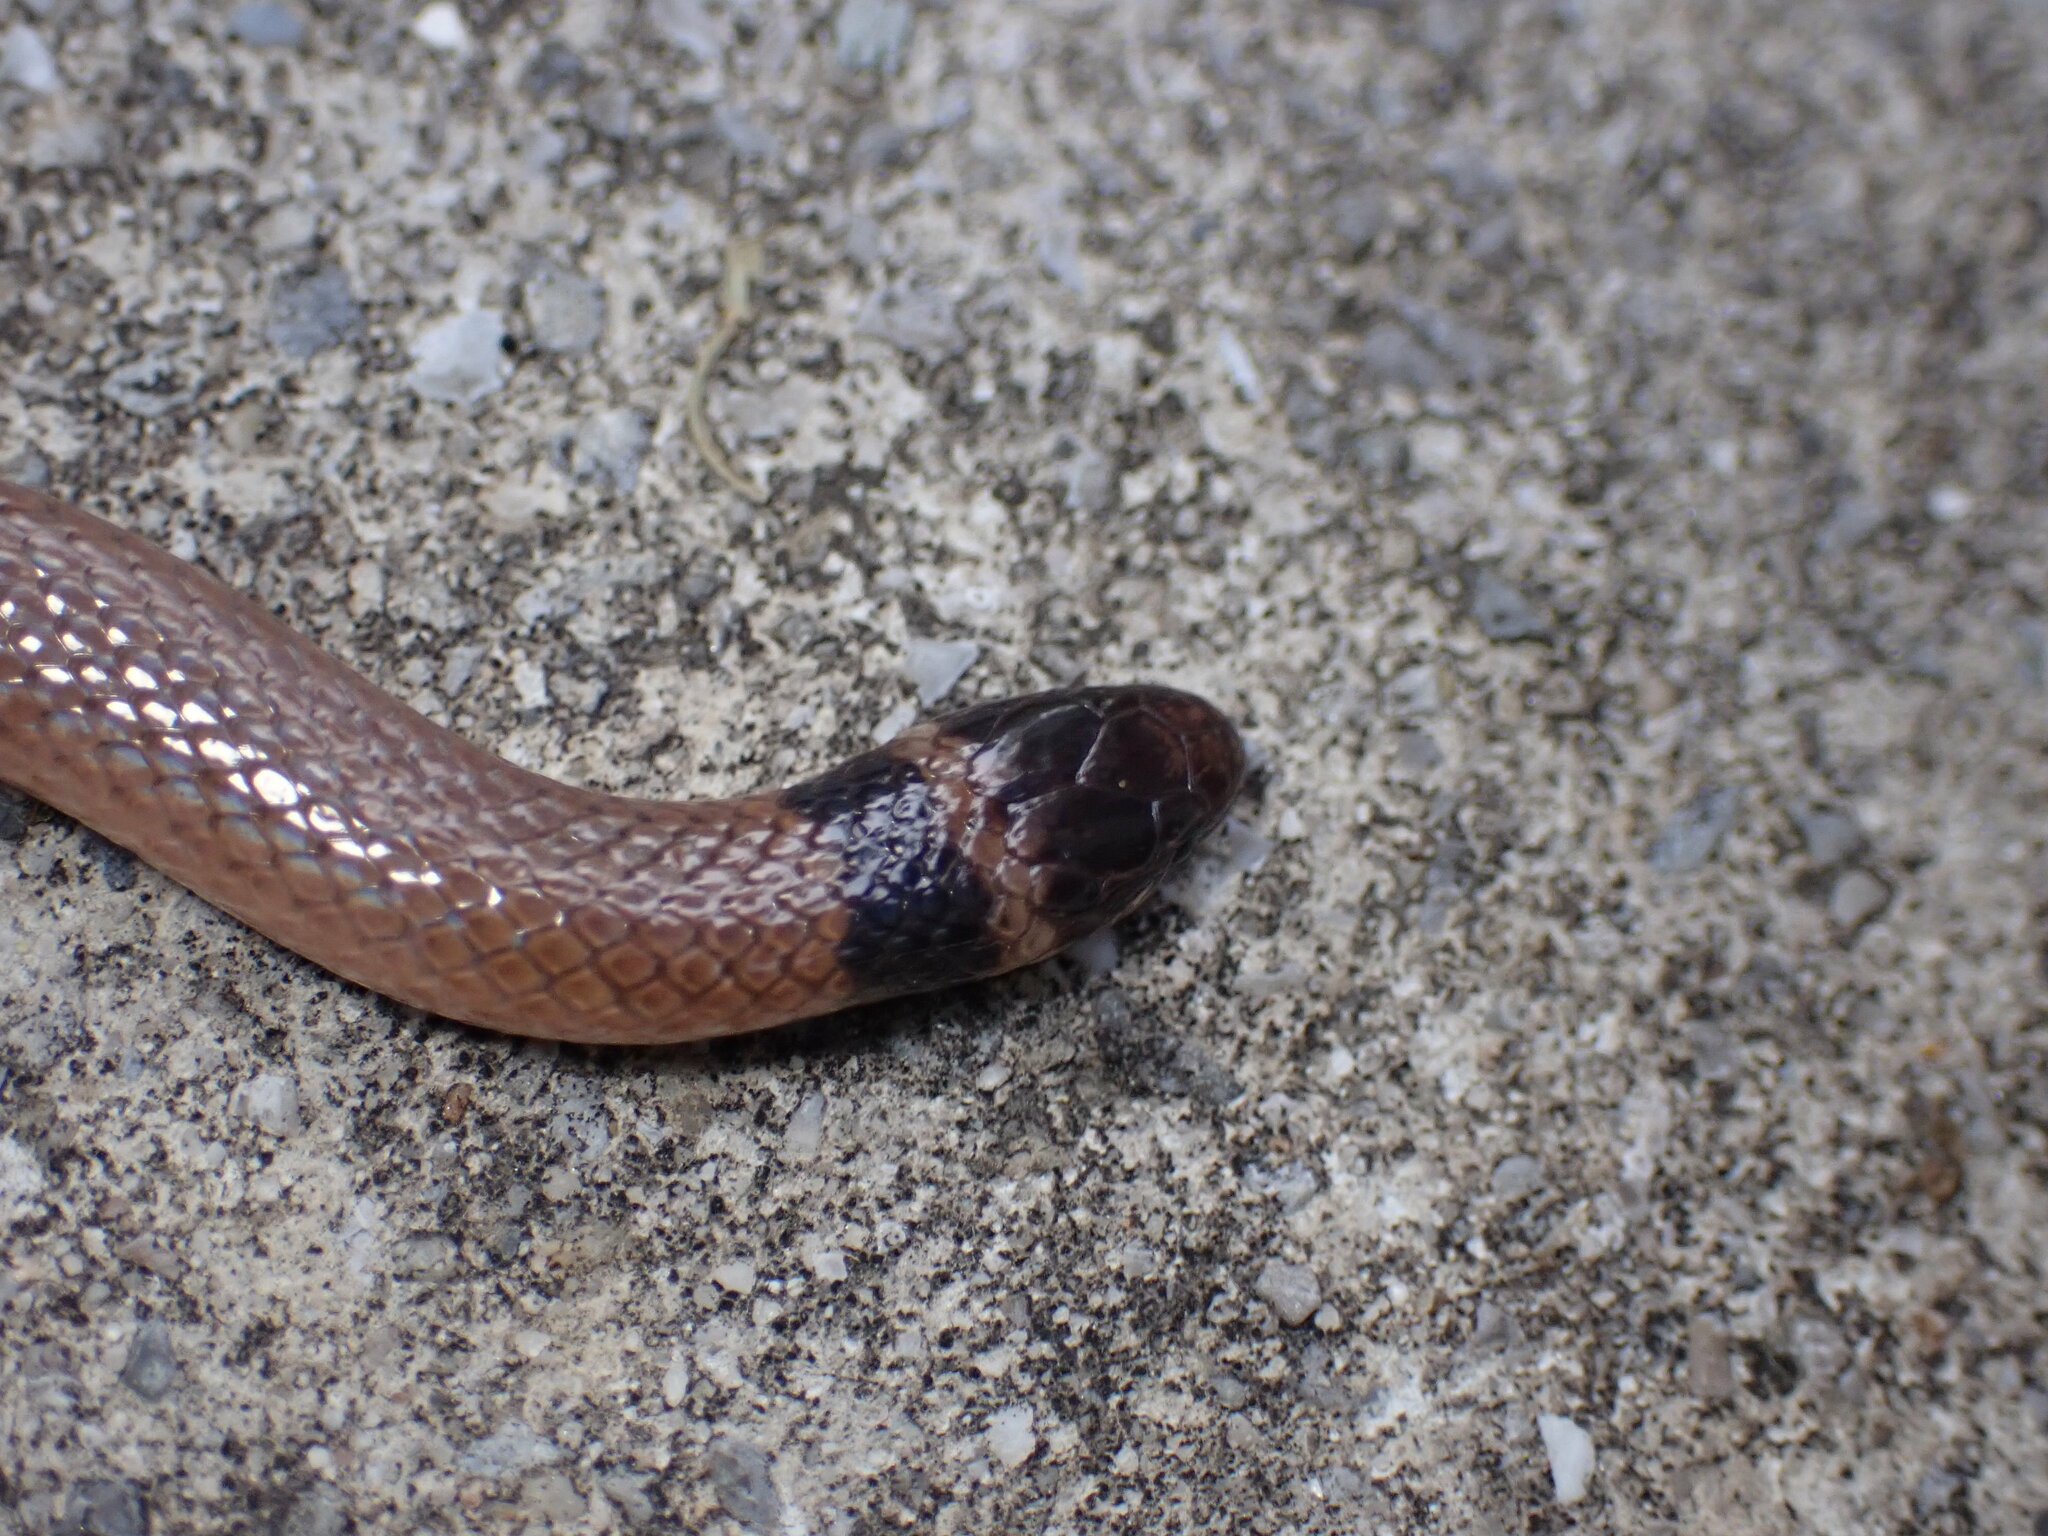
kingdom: Animalia
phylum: Chordata
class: Squamata
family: Colubridae
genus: Tantilla
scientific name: Tantilla coronata
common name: Southeastern crowned snake
